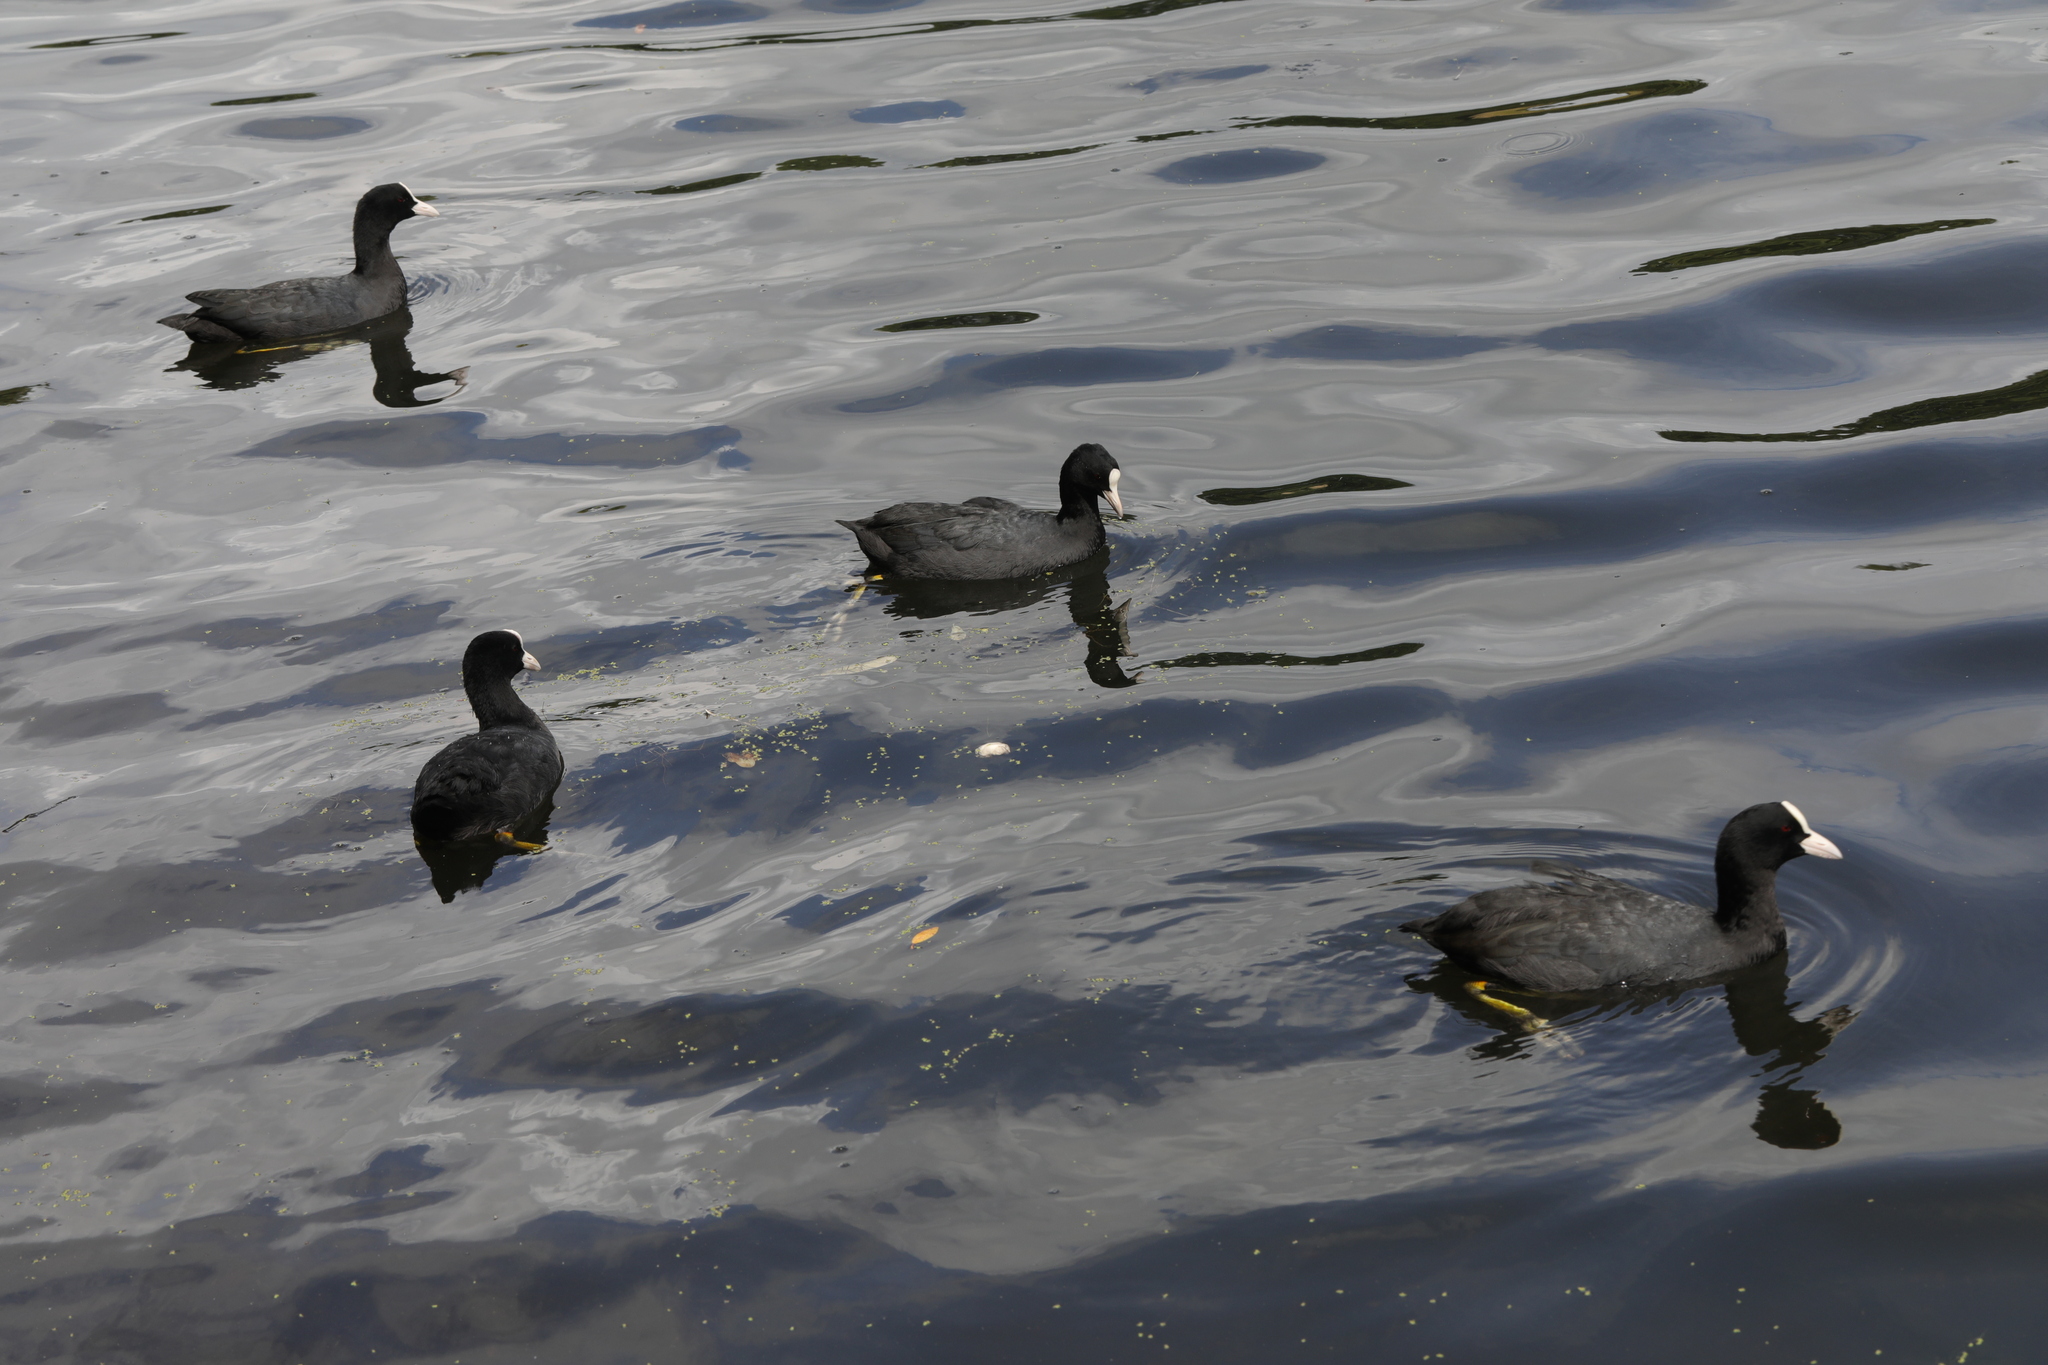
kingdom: Animalia
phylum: Chordata
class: Aves
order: Gruiformes
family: Rallidae
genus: Fulica
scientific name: Fulica atra
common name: Eurasian coot
